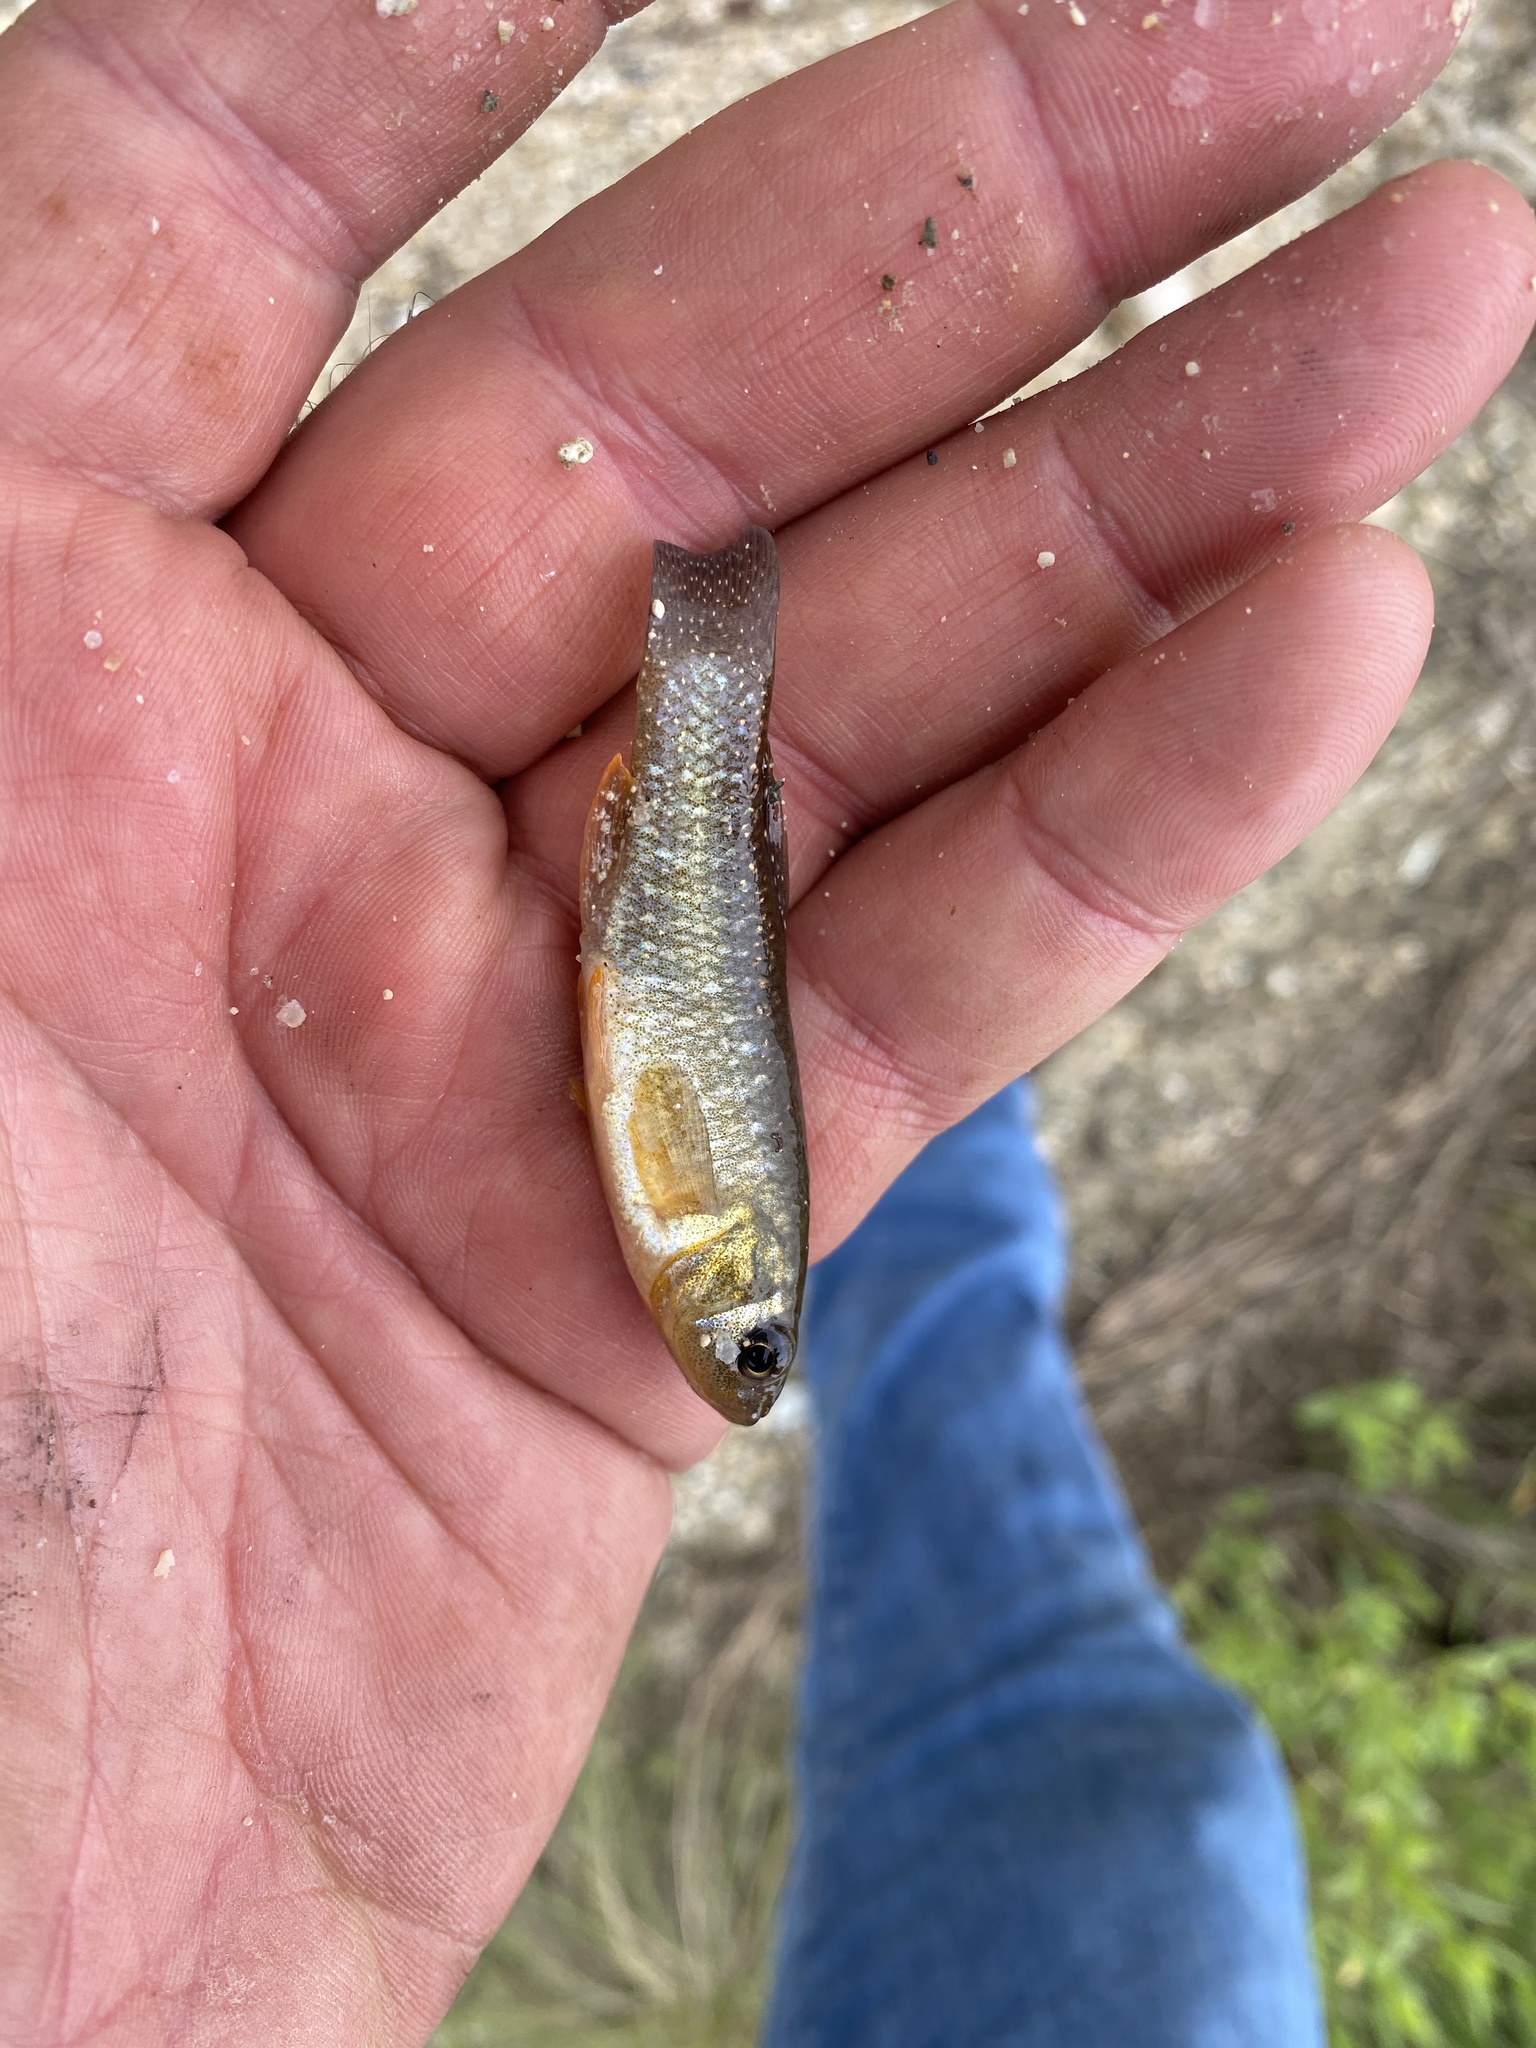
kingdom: Animalia
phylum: Chordata
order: Cyprinodontiformes
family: Fundulidae
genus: Fundulus
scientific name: Fundulus grandis
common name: Gulf killifish
